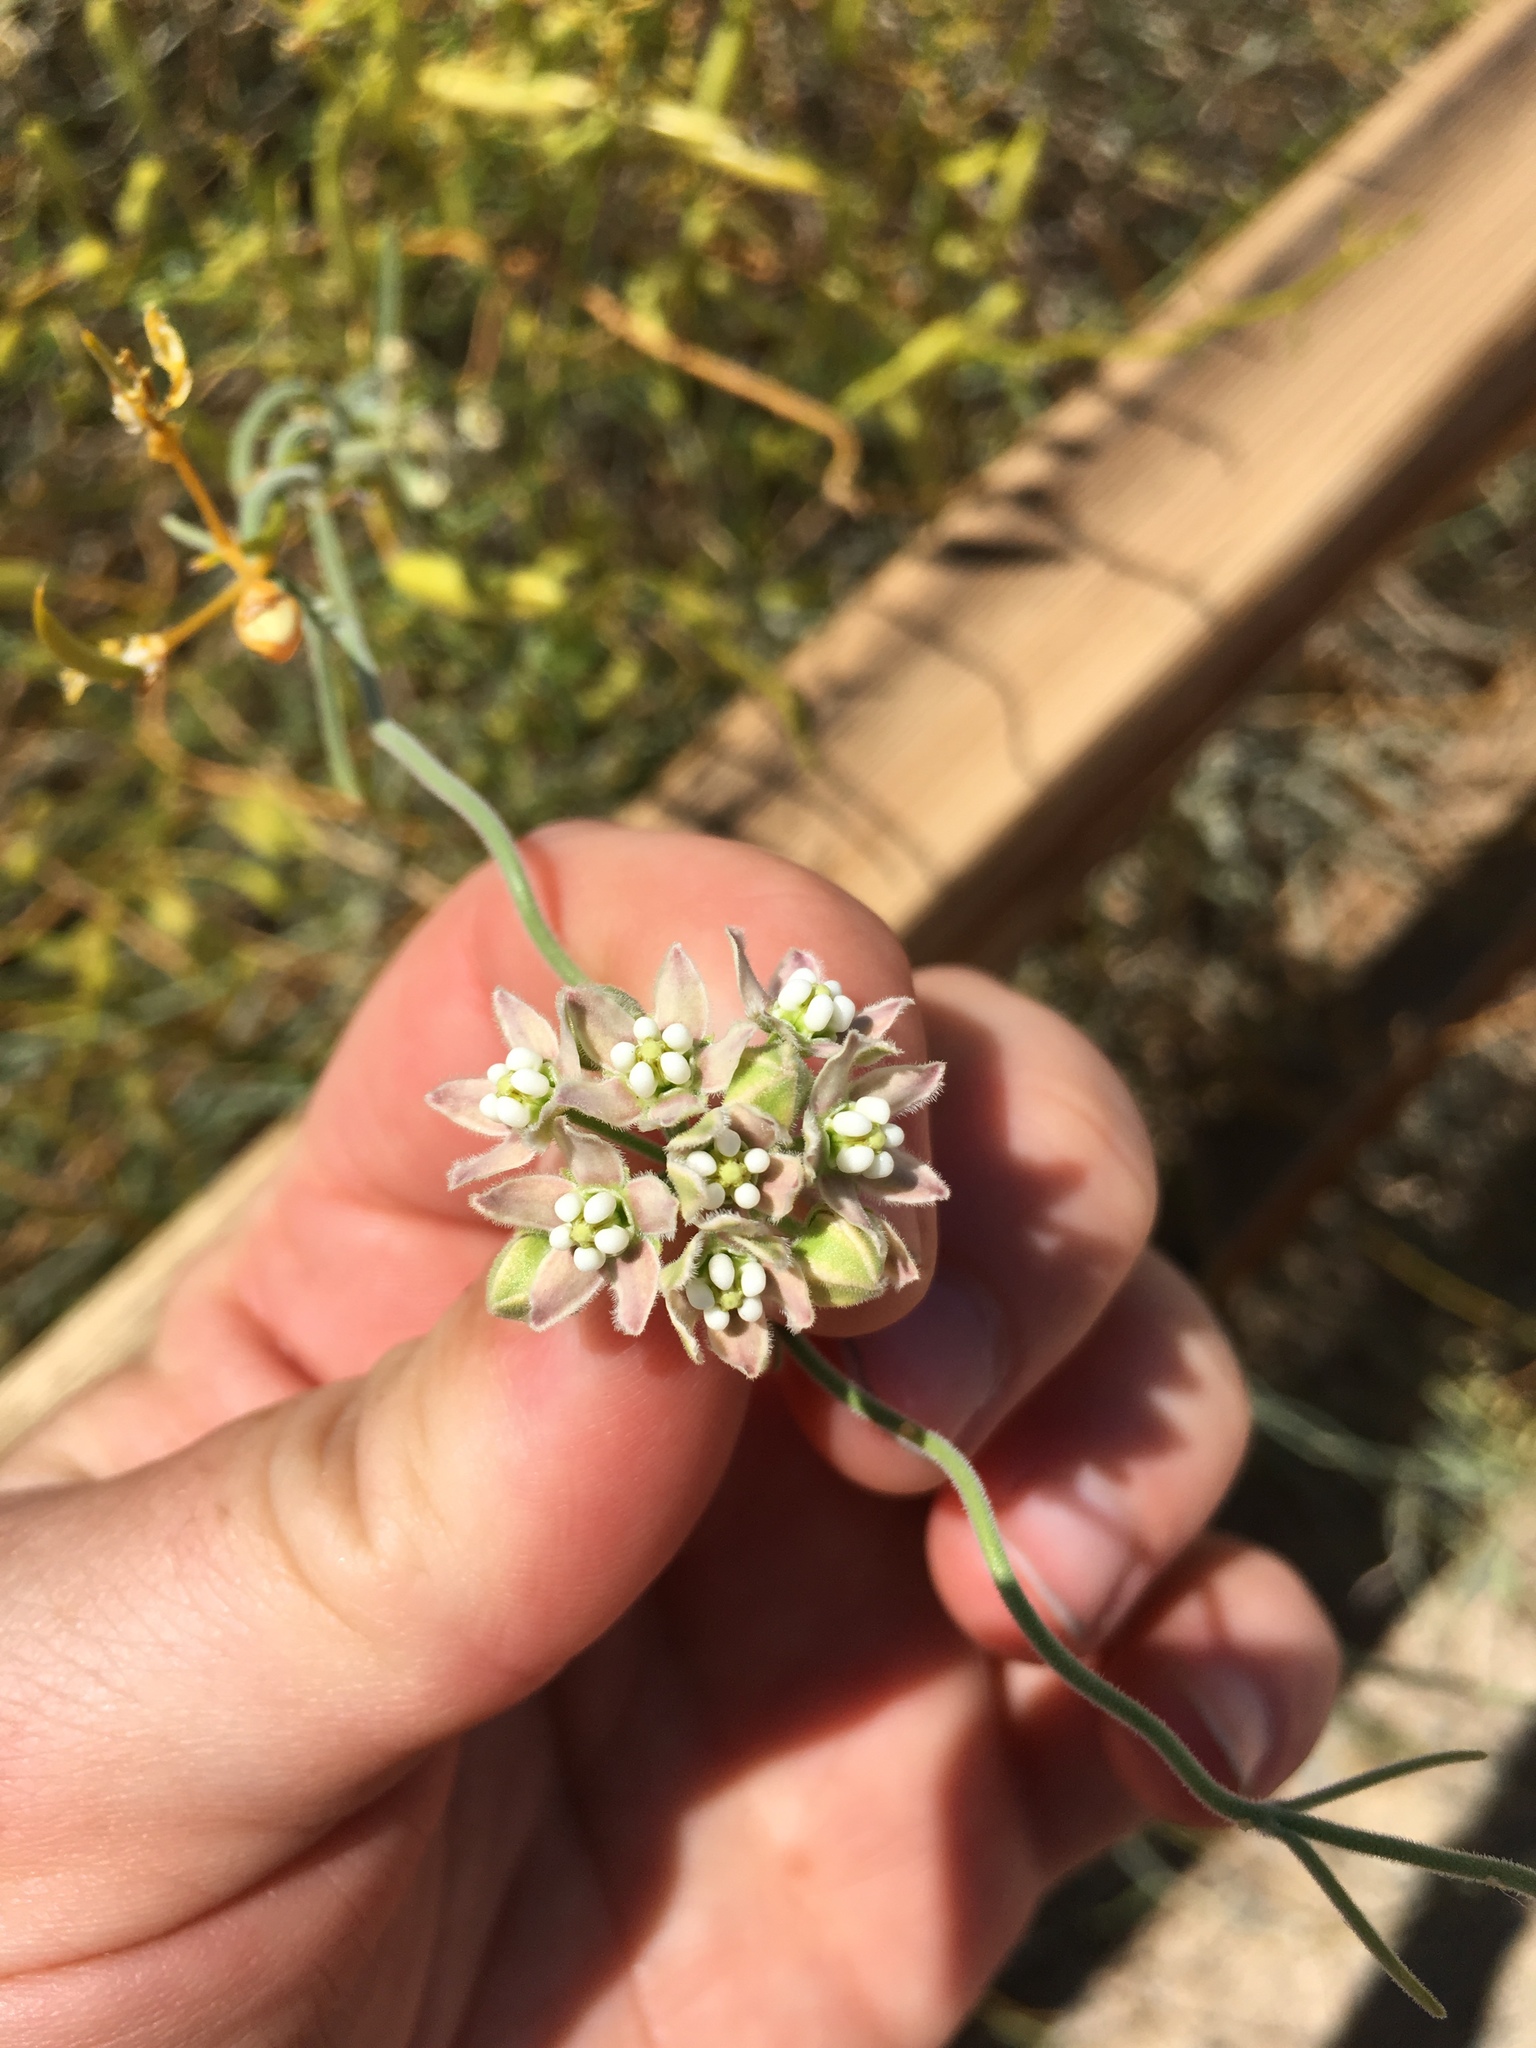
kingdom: Plantae
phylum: Tracheophyta
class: Magnoliopsida
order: Gentianales
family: Apocynaceae
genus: Funastrum
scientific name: Funastrum hirtellum
